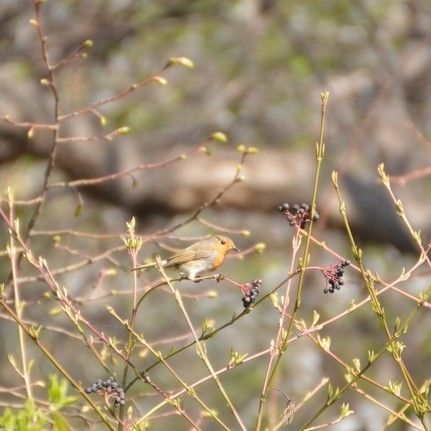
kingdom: Animalia
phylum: Chordata
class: Aves
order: Passeriformes
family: Muscicapidae
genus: Erithacus
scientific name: Erithacus rubecula
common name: European robin
